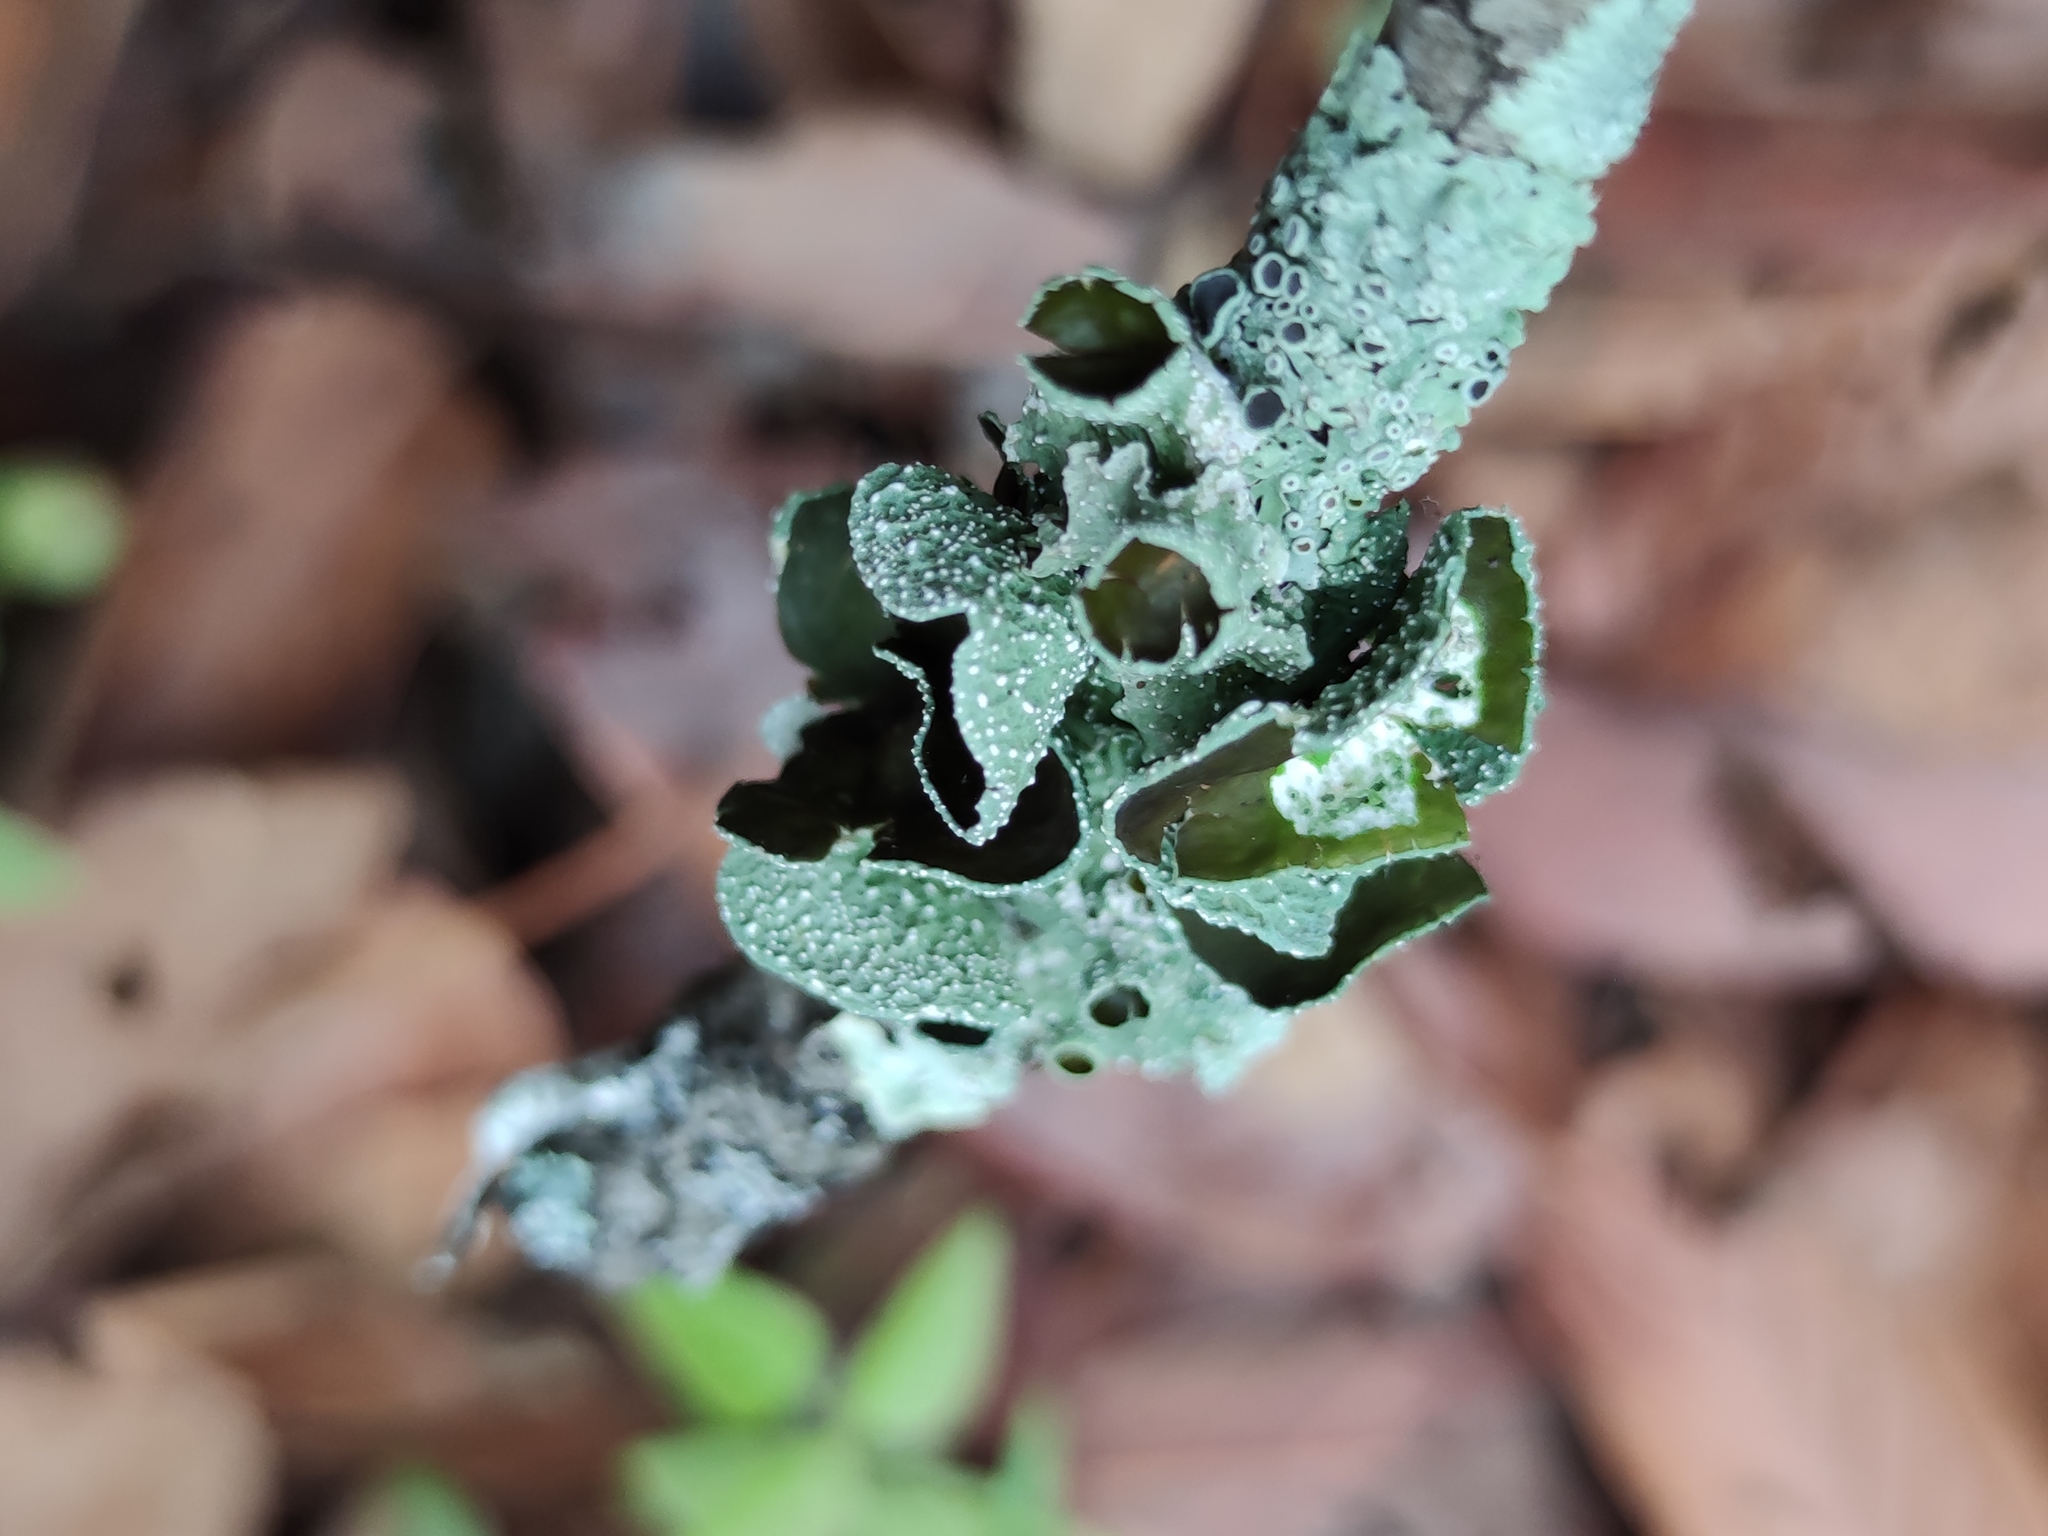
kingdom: Fungi
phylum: Ascomycota
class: Lecanoromycetes
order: Lecanorales
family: Parmeliaceae
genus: Punctelia
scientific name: Punctelia bolliana
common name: Eastern speckled shield lichen
